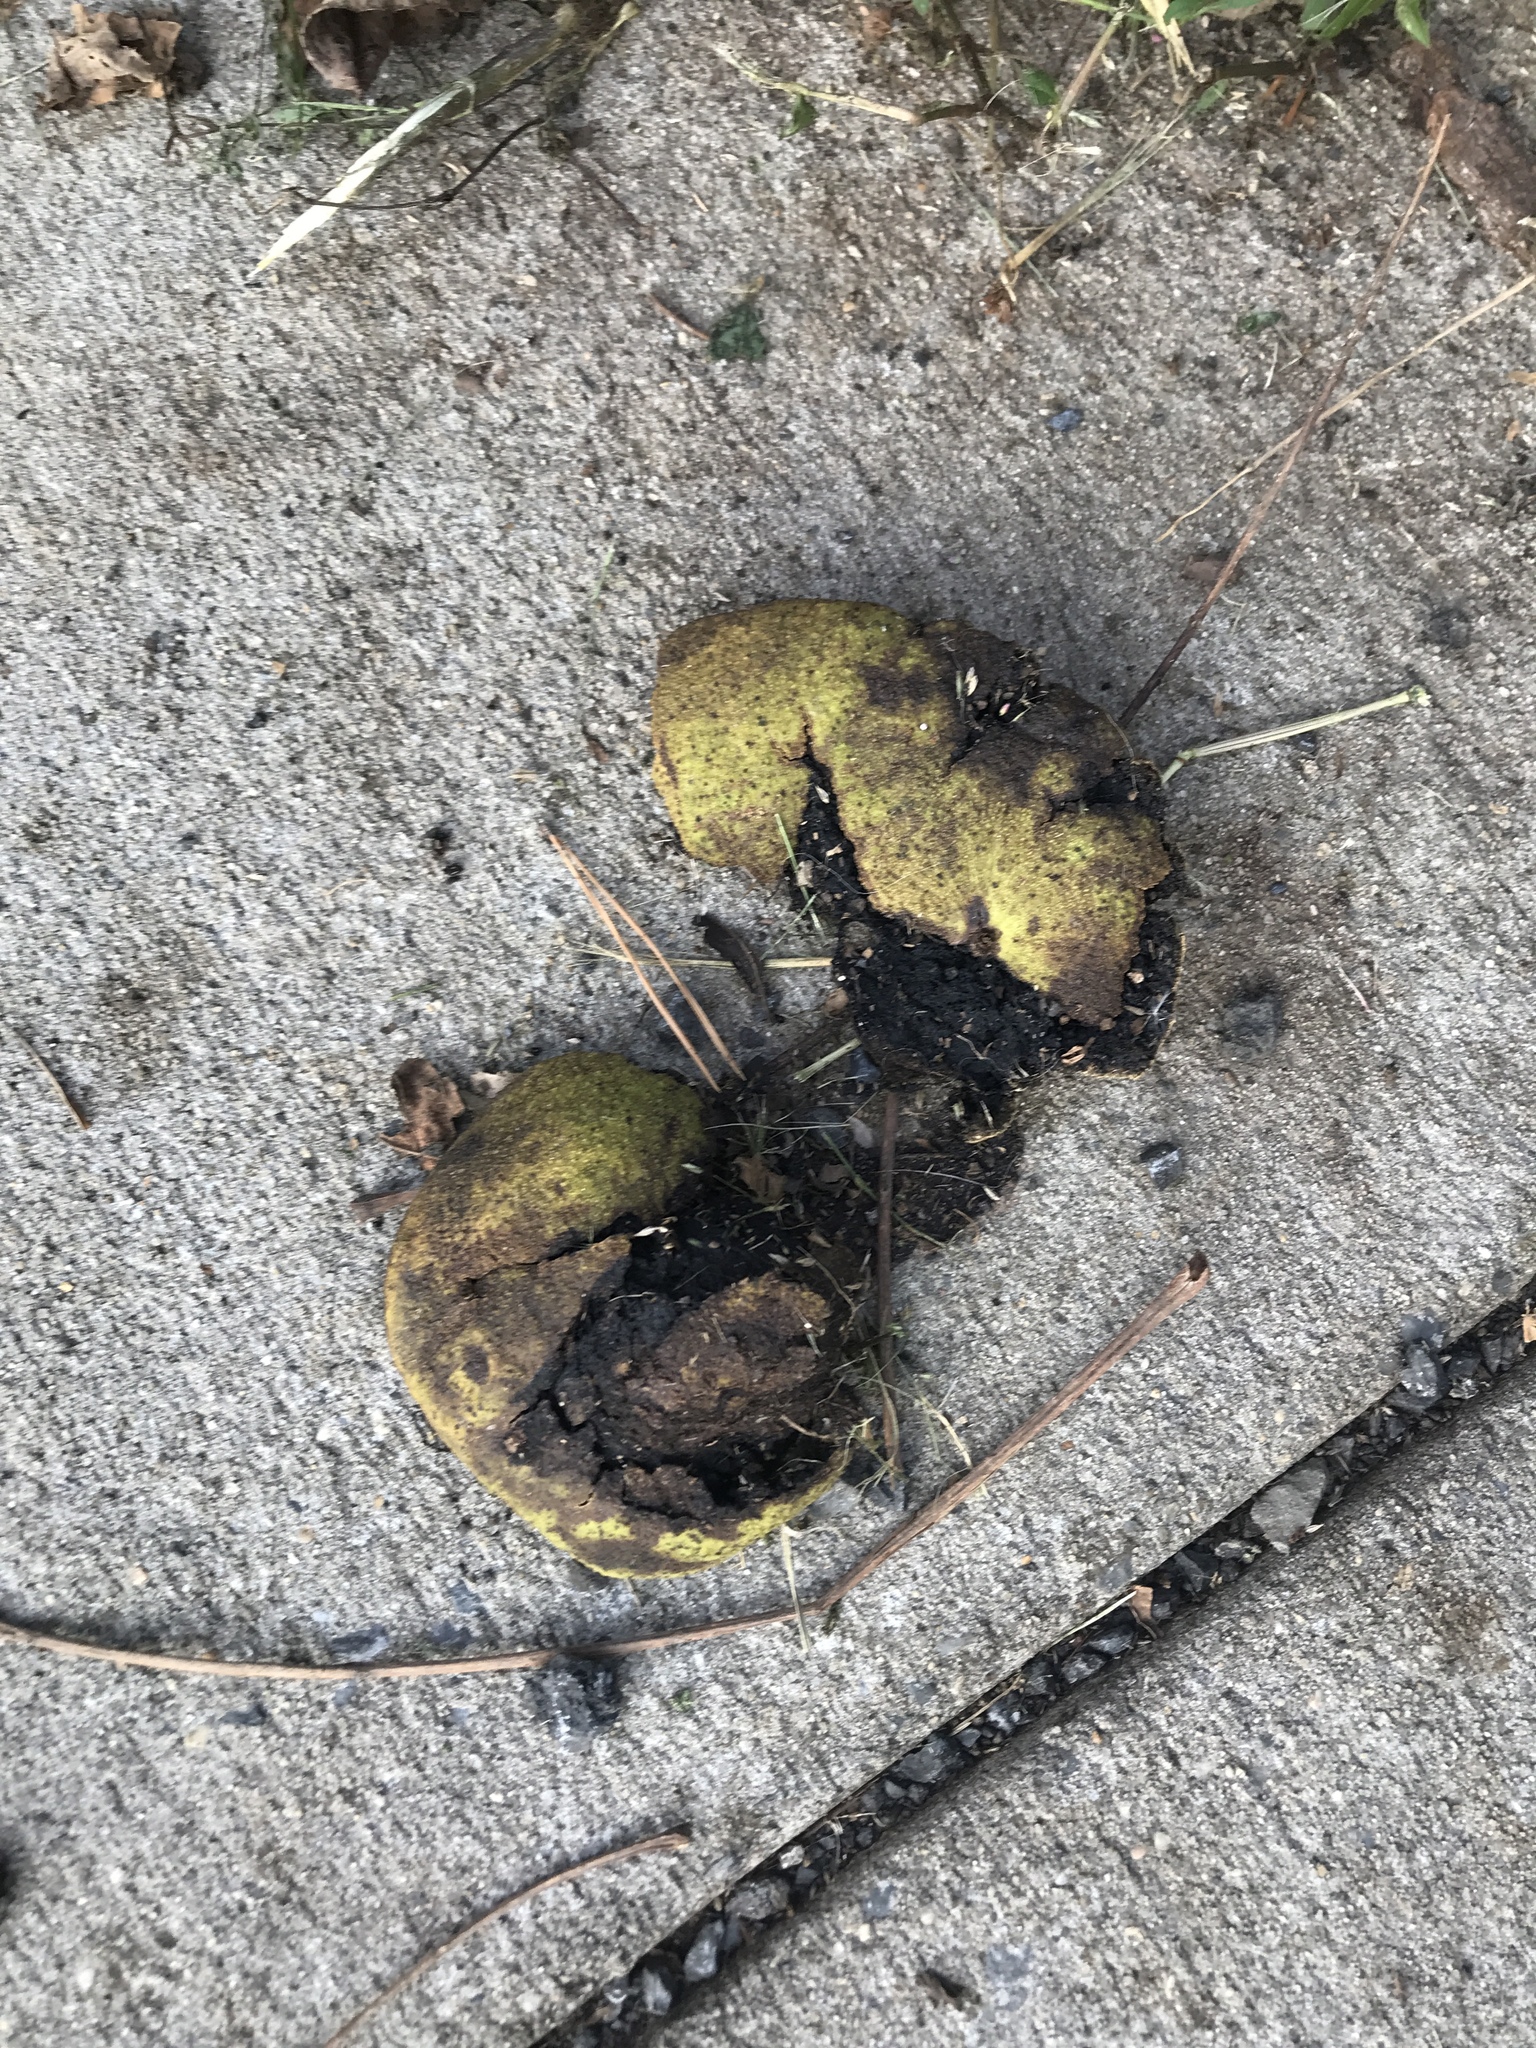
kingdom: Plantae
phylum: Tracheophyta
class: Magnoliopsida
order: Fagales
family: Juglandaceae
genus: Juglans
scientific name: Juglans nigra
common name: Black walnut
